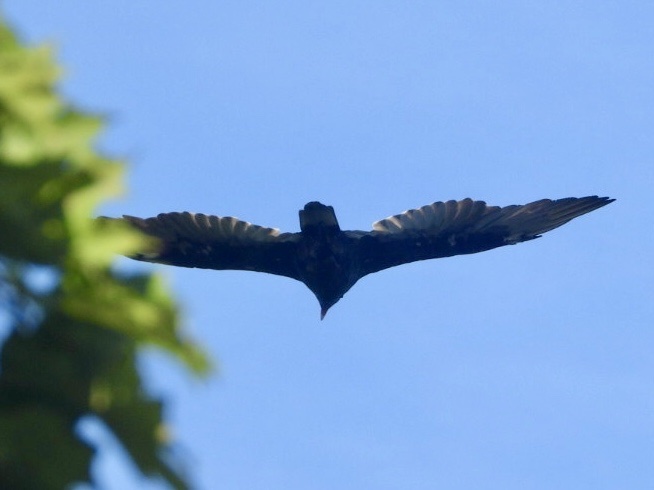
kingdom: Animalia
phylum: Chordata
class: Aves
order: Accipitriformes
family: Cathartidae
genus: Cathartes
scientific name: Cathartes aura
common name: Turkey vulture
